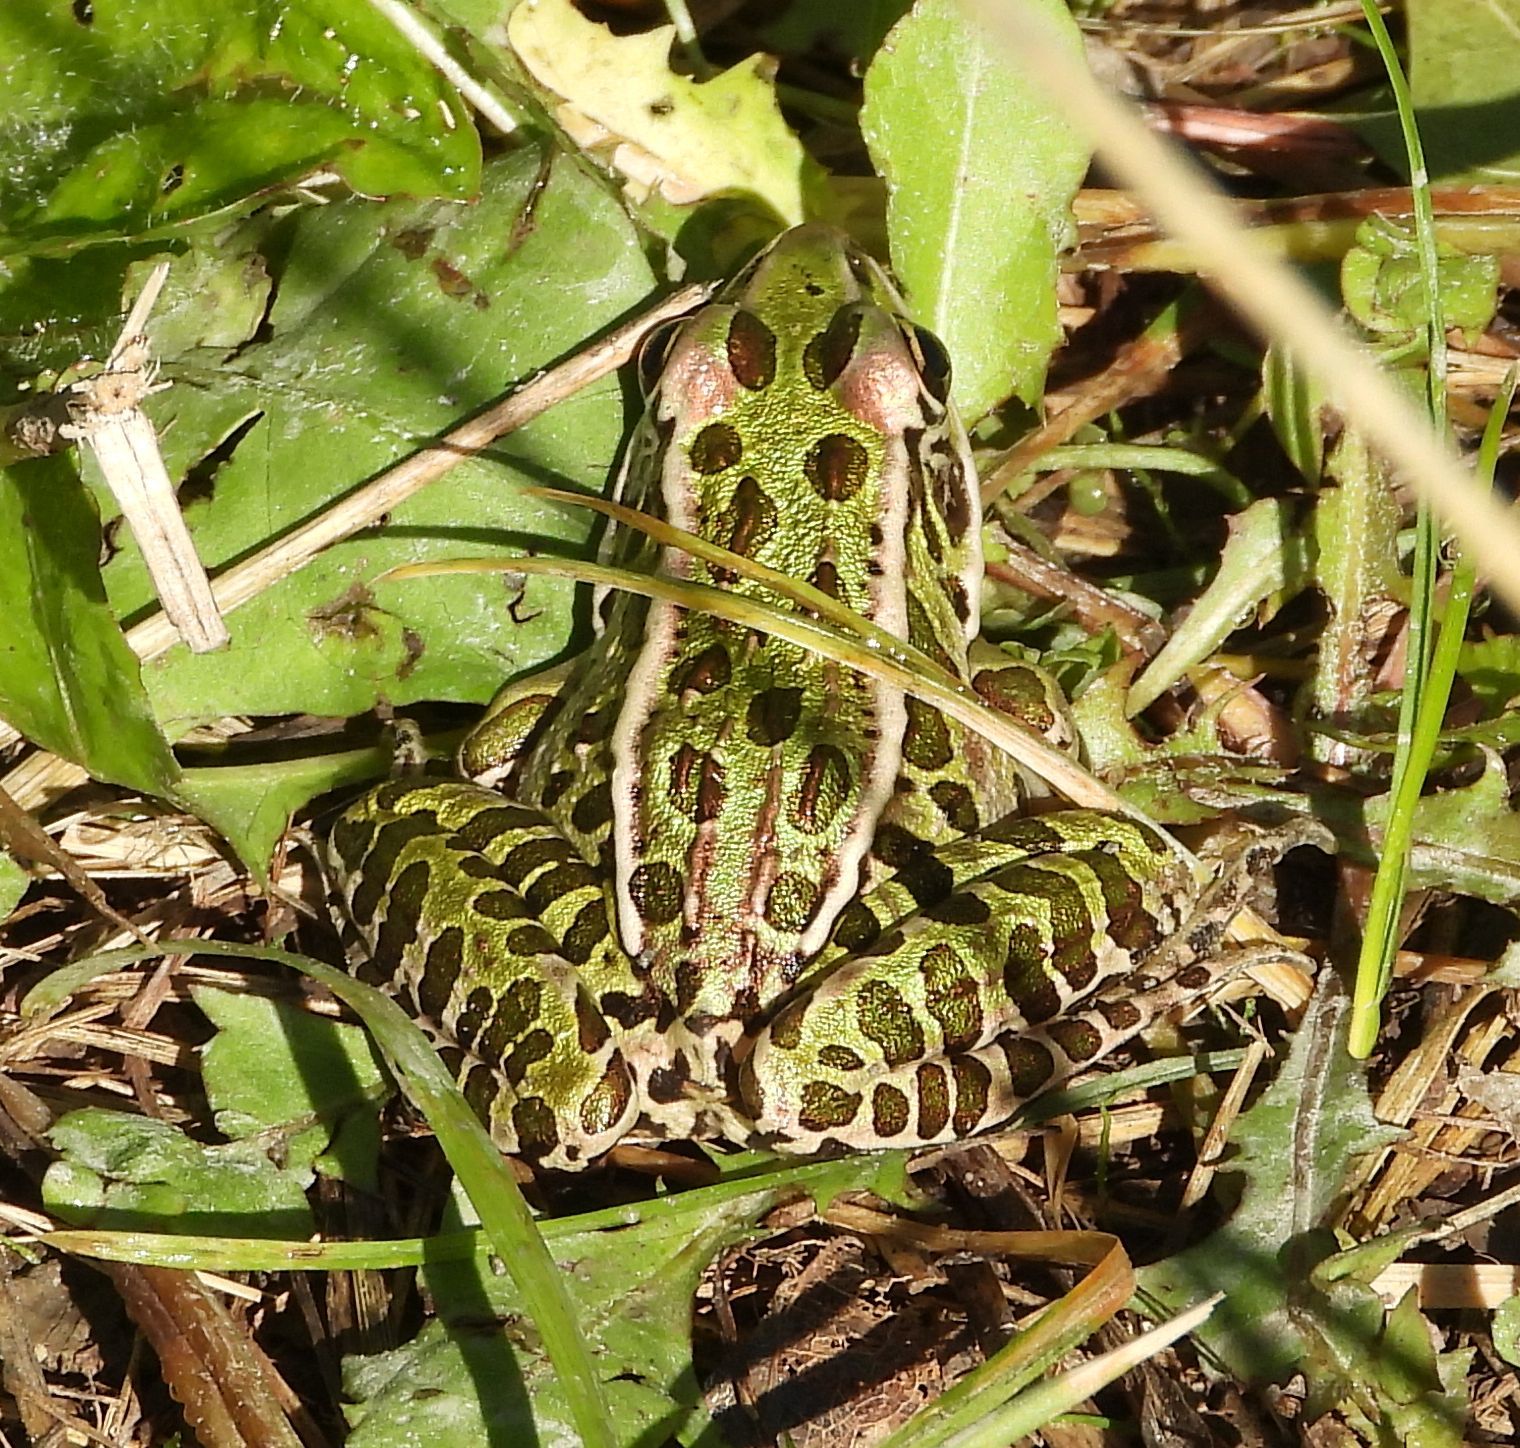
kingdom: Animalia
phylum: Chordata
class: Amphibia
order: Anura
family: Ranidae
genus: Lithobates
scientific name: Lithobates pipiens
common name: Northern leopard frog
